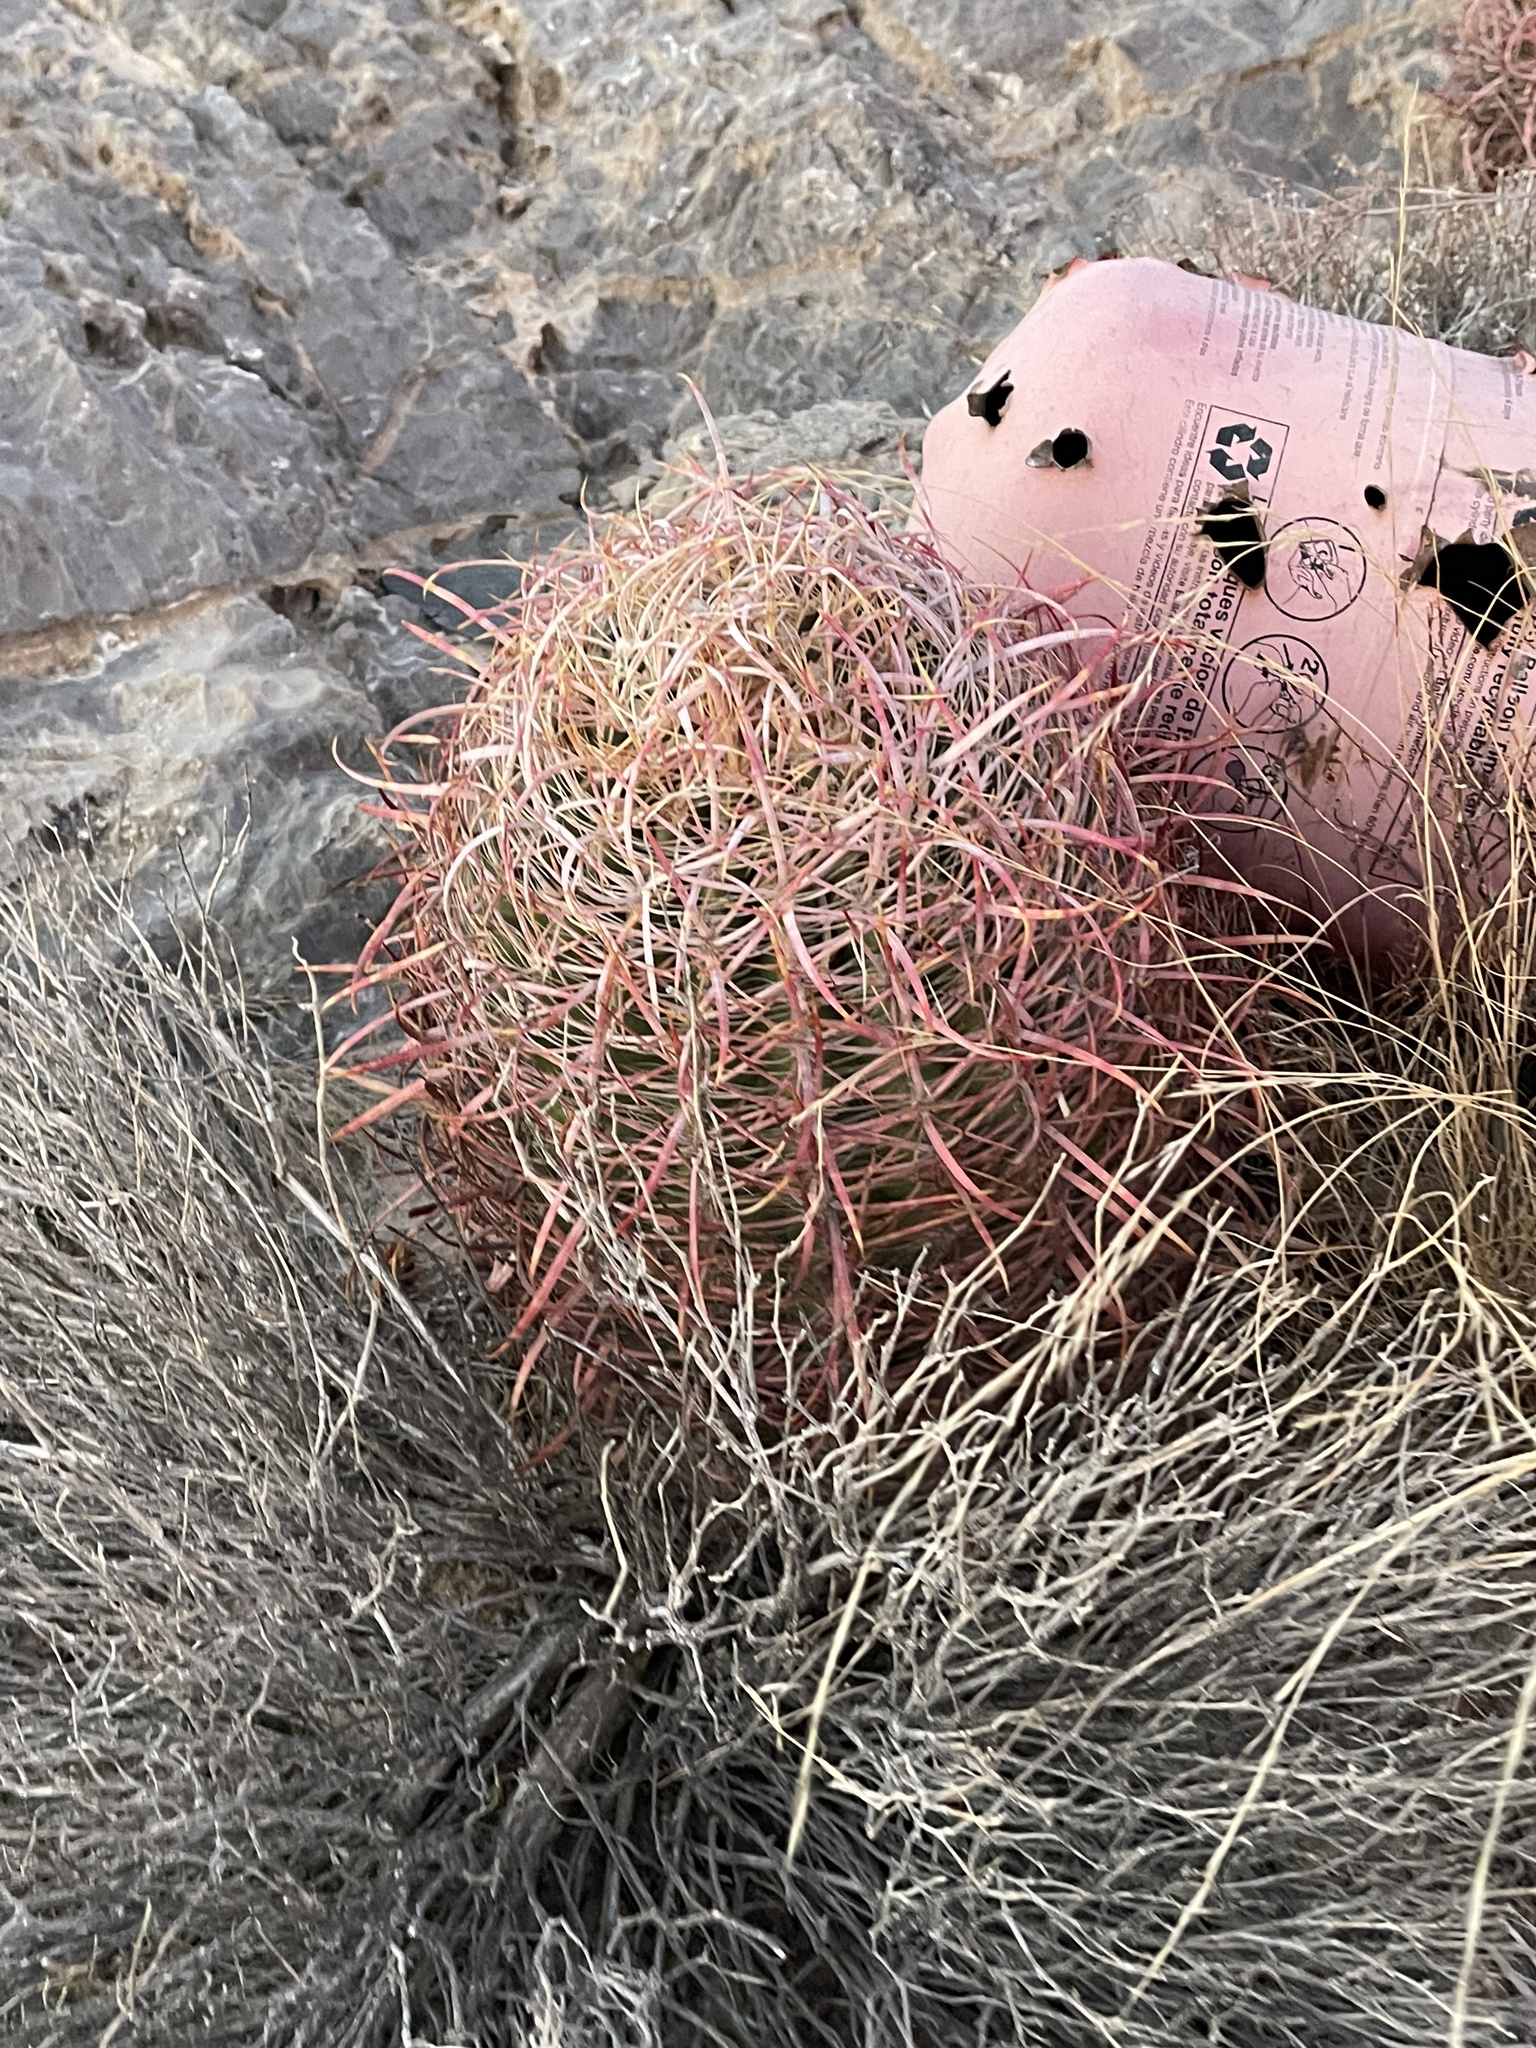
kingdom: Plantae
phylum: Tracheophyta
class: Magnoliopsida
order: Caryophyllales
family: Cactaceae
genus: Ferocactus
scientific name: Ferocactus cylindraceus
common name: California barrel cactus
